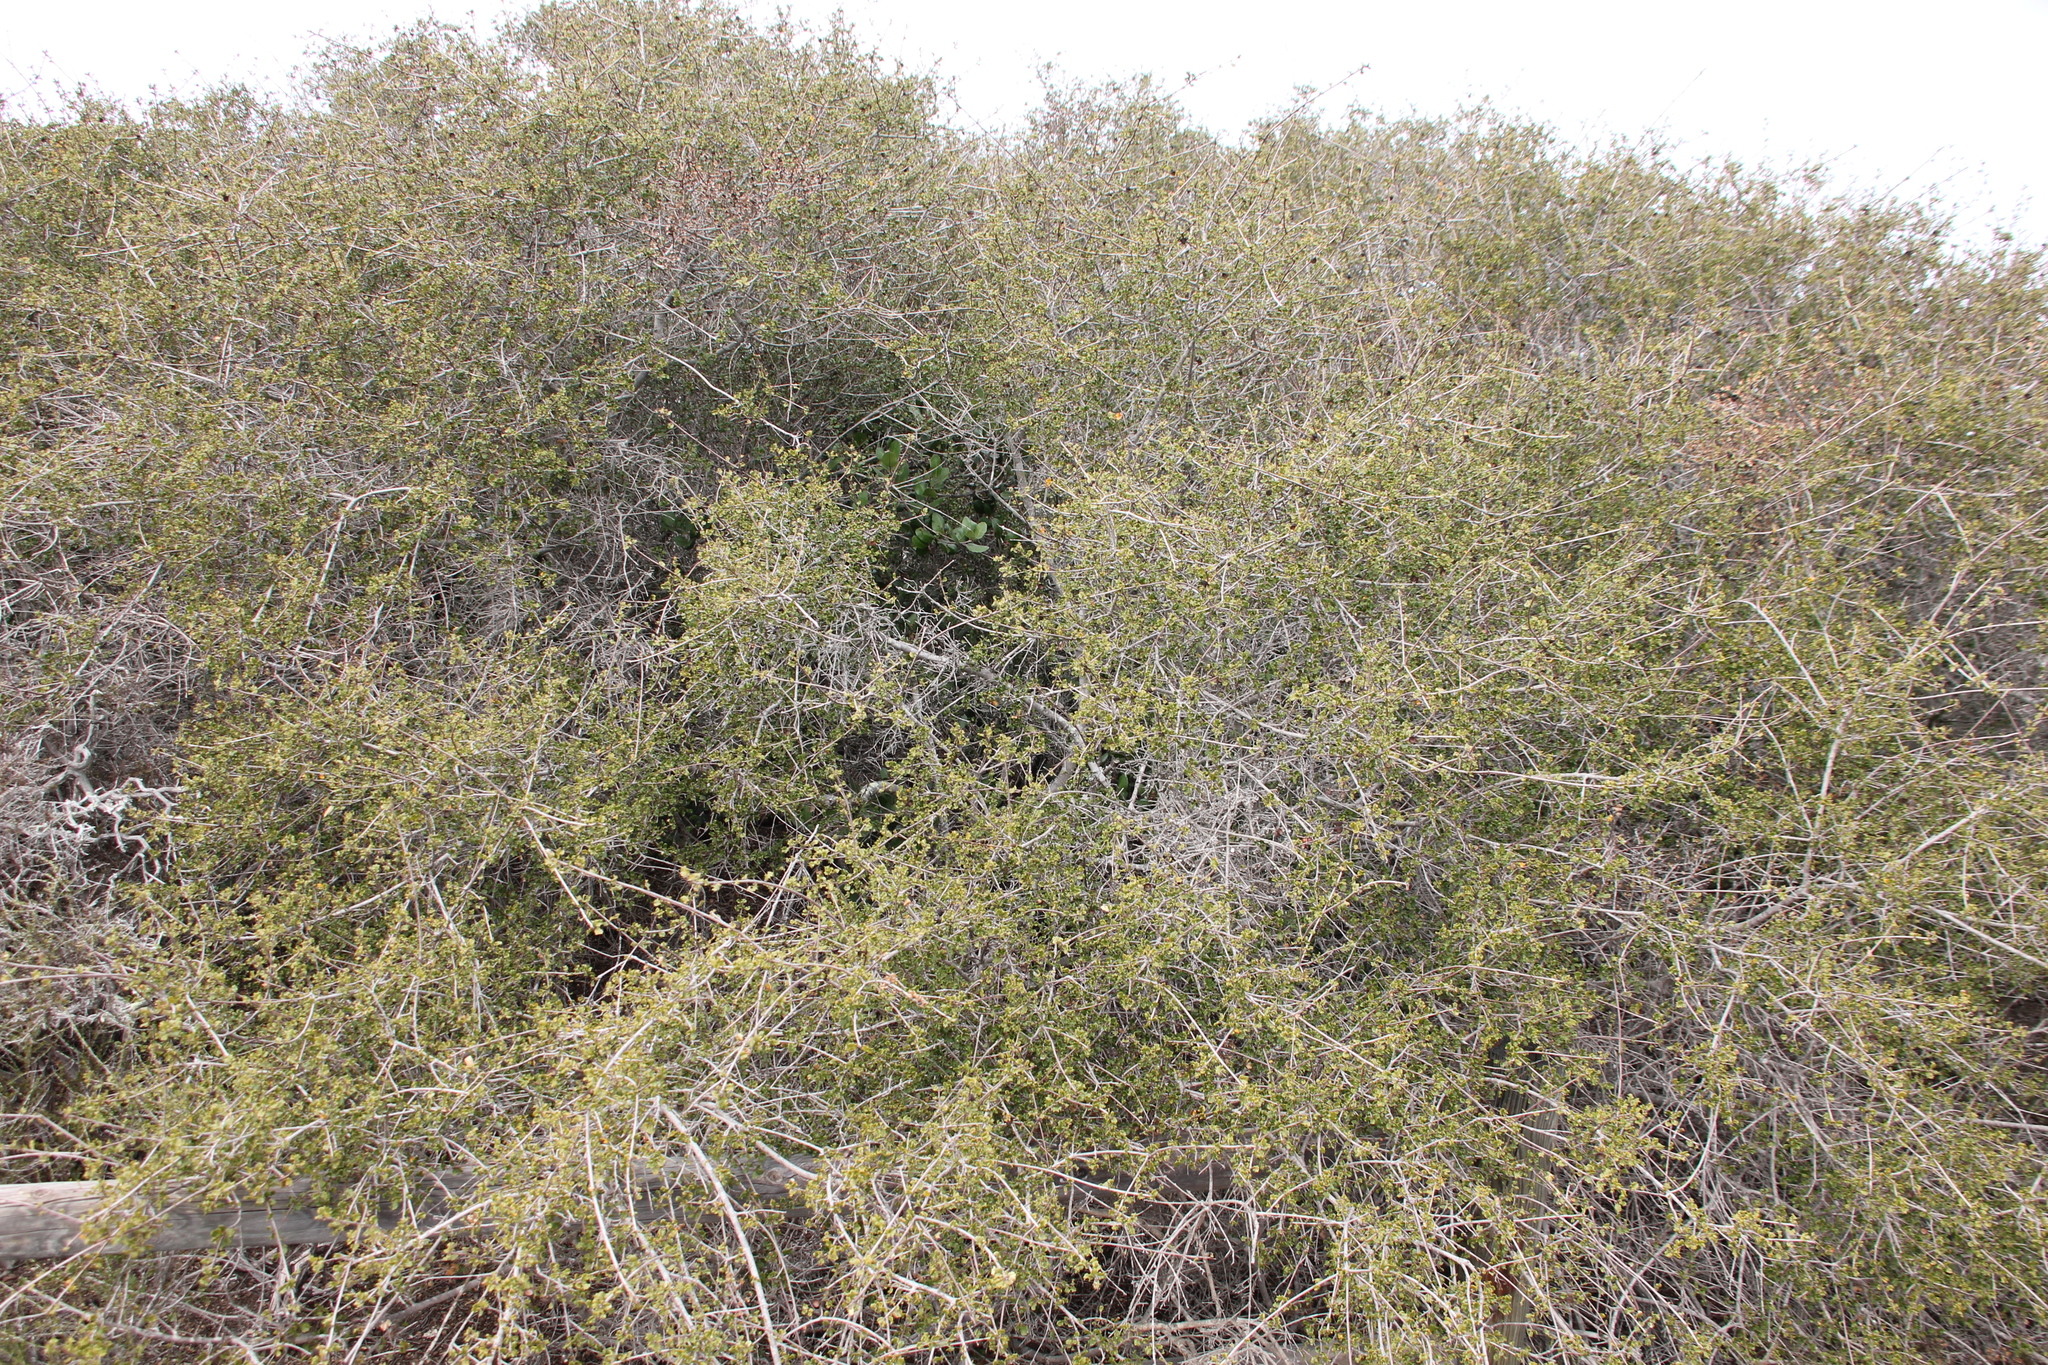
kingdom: Plantae
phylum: Tracheophyta
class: Magnoliopsida
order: Fagales
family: Fagaceae
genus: Quercus
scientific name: Quercus dumosa
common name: Coastal sage scrub oak
